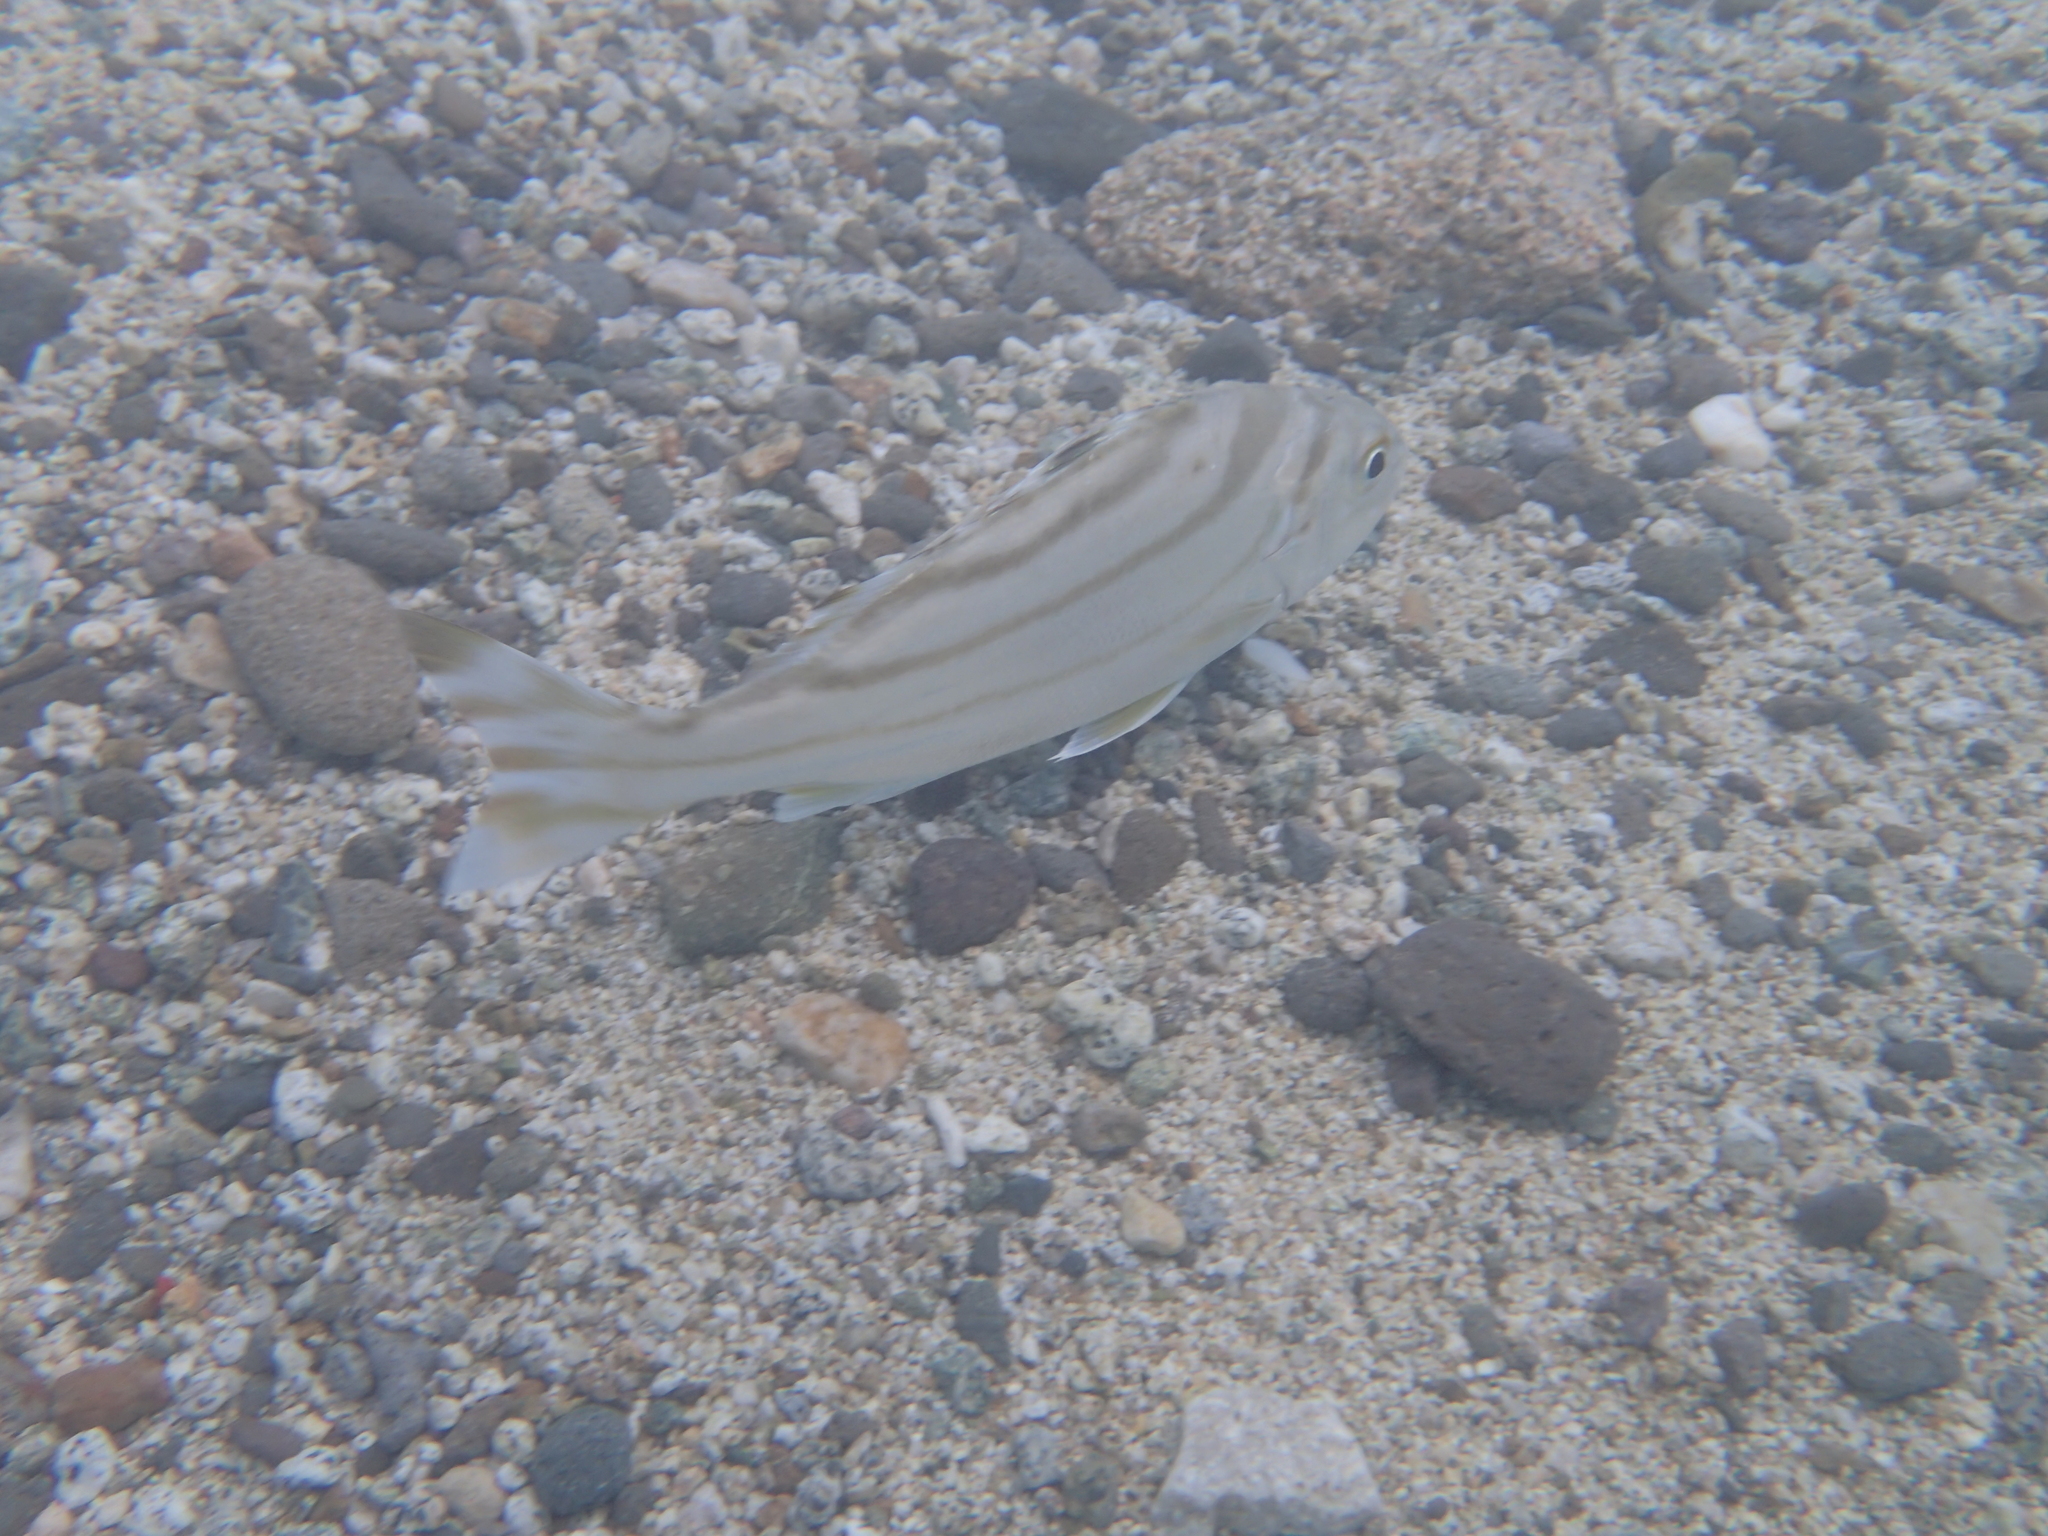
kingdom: Animalia
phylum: Chordata
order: Perciformes
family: Terapontidae
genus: Terapon
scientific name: Terapon jarbua
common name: Jarbua terapon
